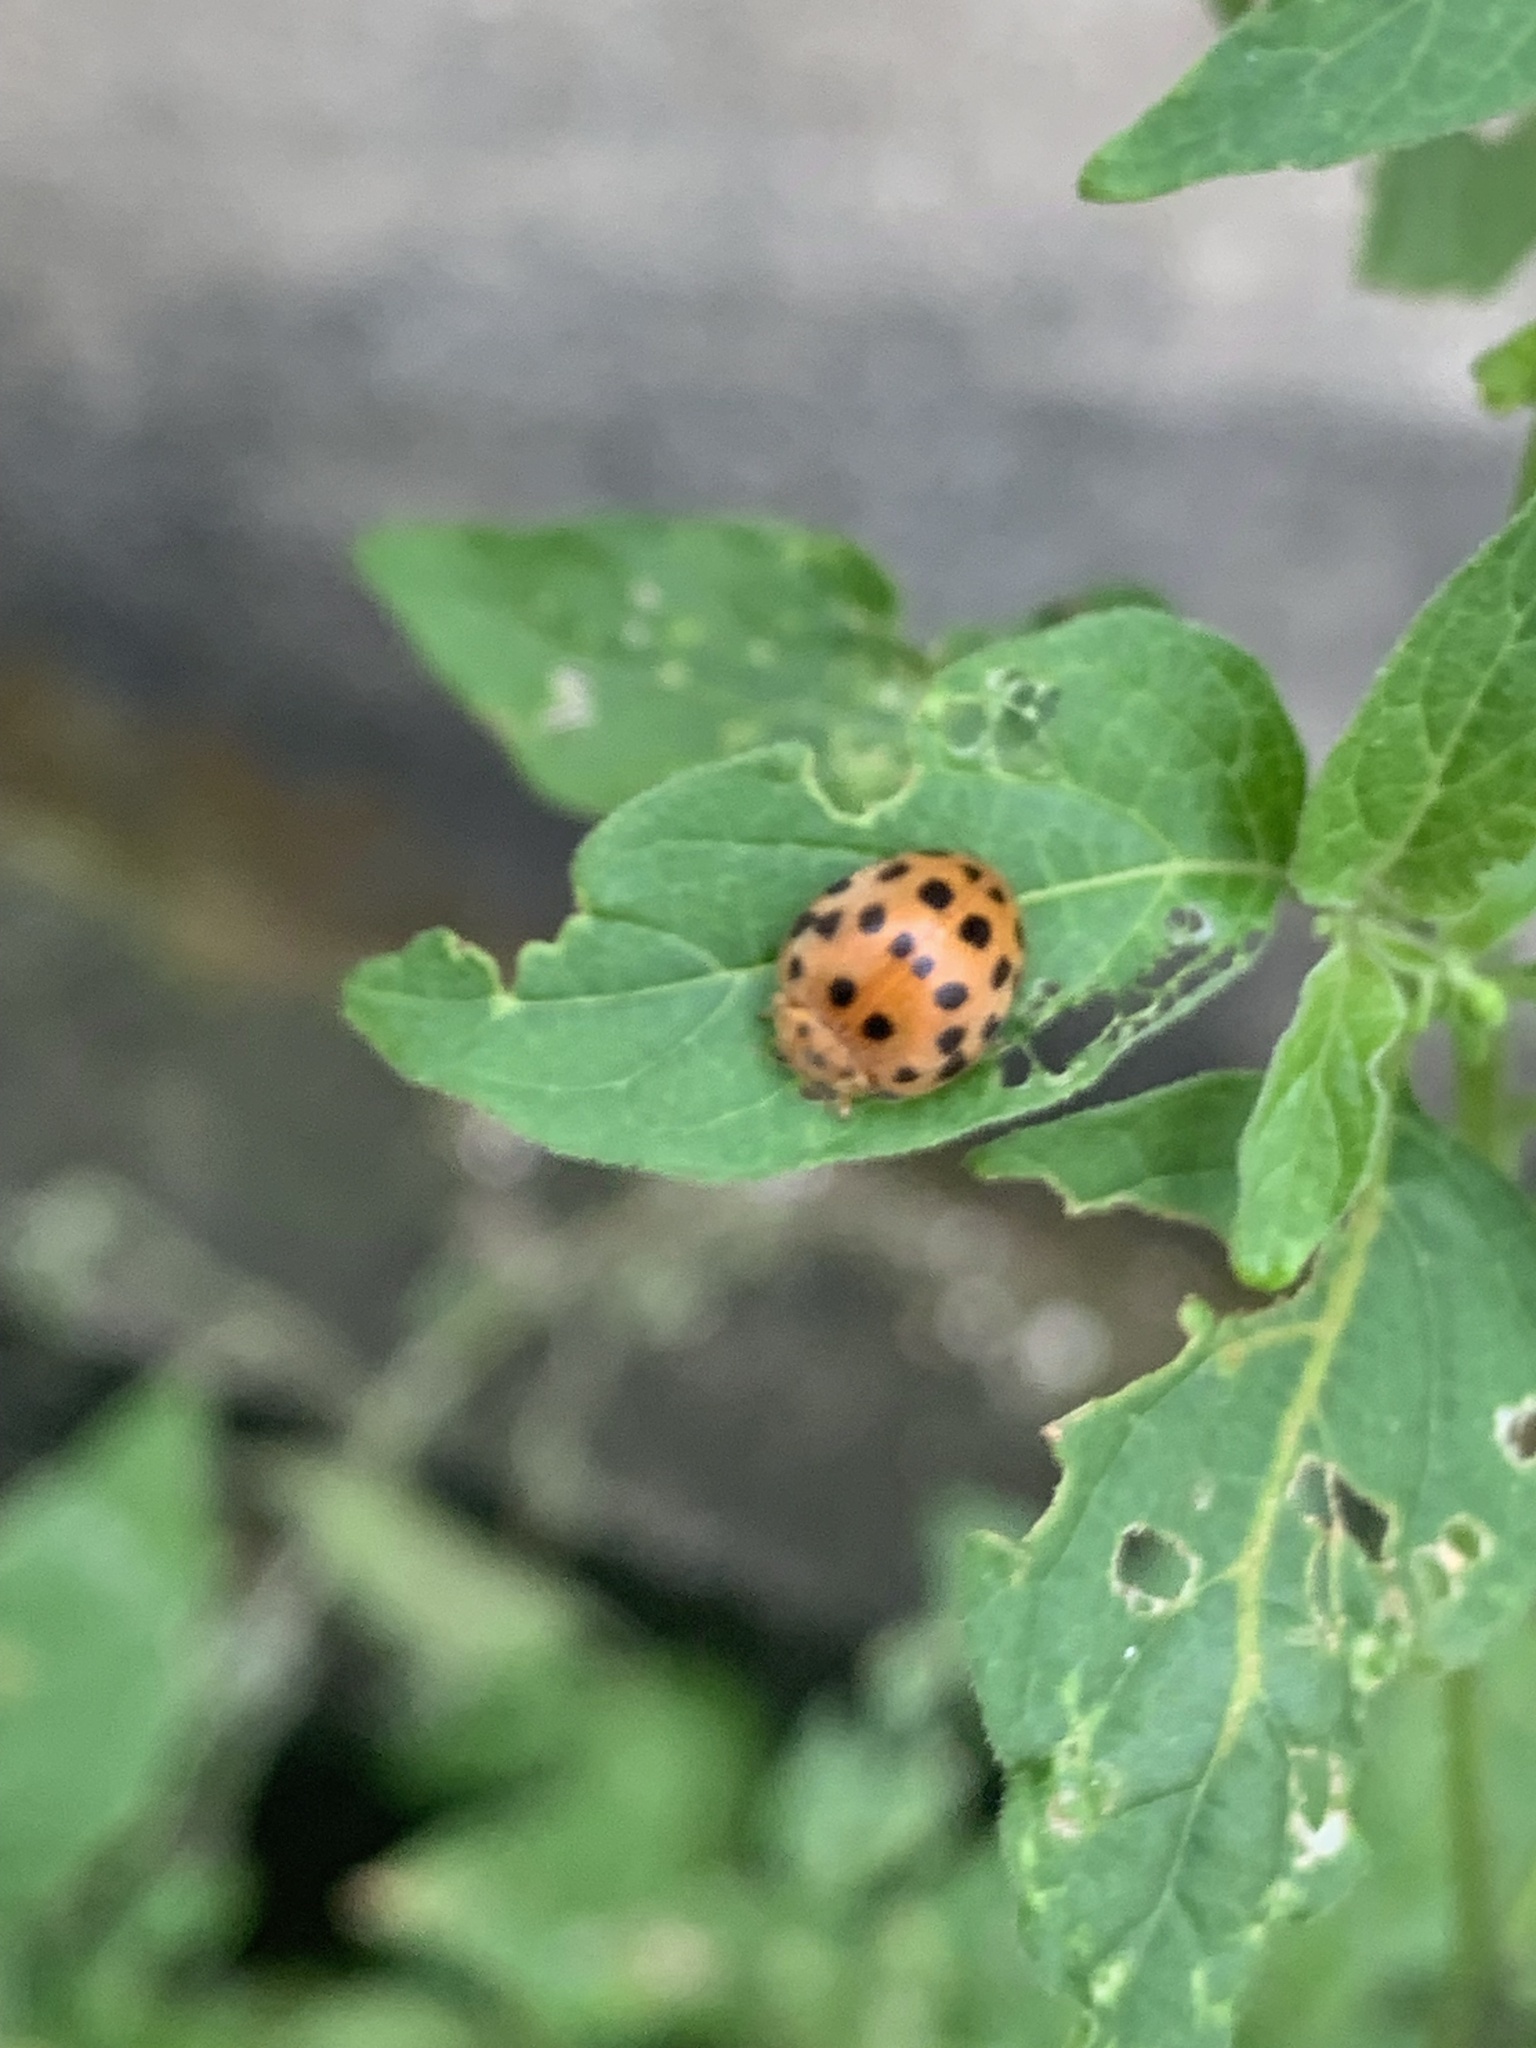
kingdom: Animalia
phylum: Arthropoda
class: Insecta
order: Coleoptera
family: Coccinellidae
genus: Henosepilachna
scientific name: Henosepilachna vigintioctopunctata
